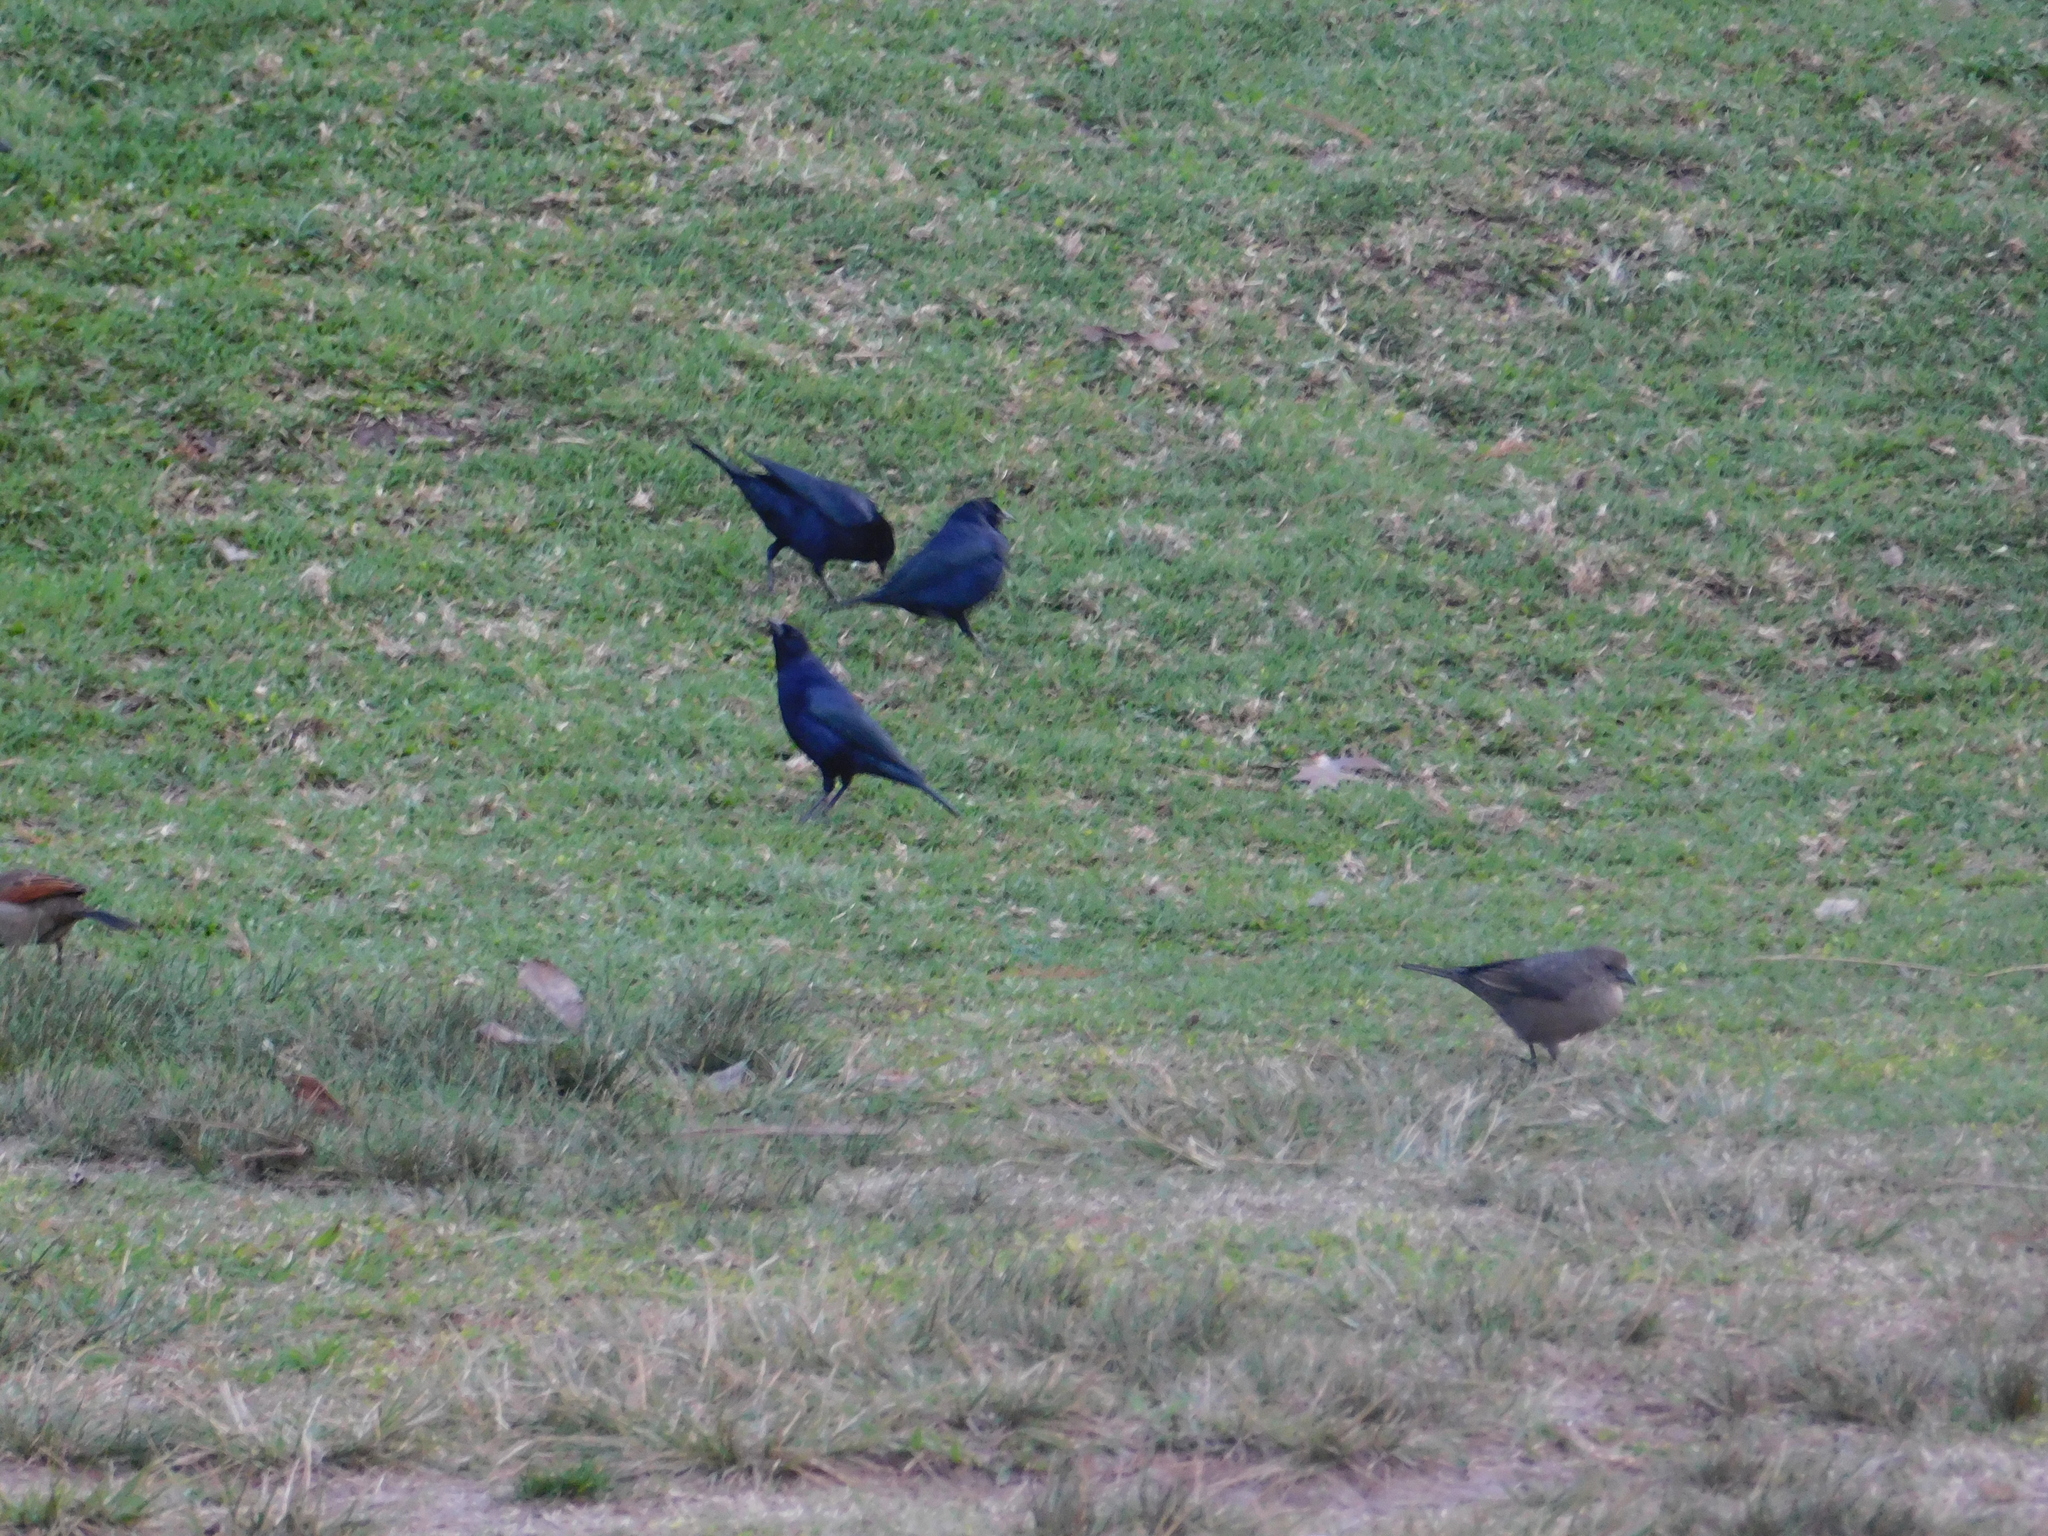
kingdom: Animalia
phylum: Chordata
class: Aves
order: Passeriformes
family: Icteridae
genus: Molothrus
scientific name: Molothrus bonariensis
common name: Shiny cowbird
